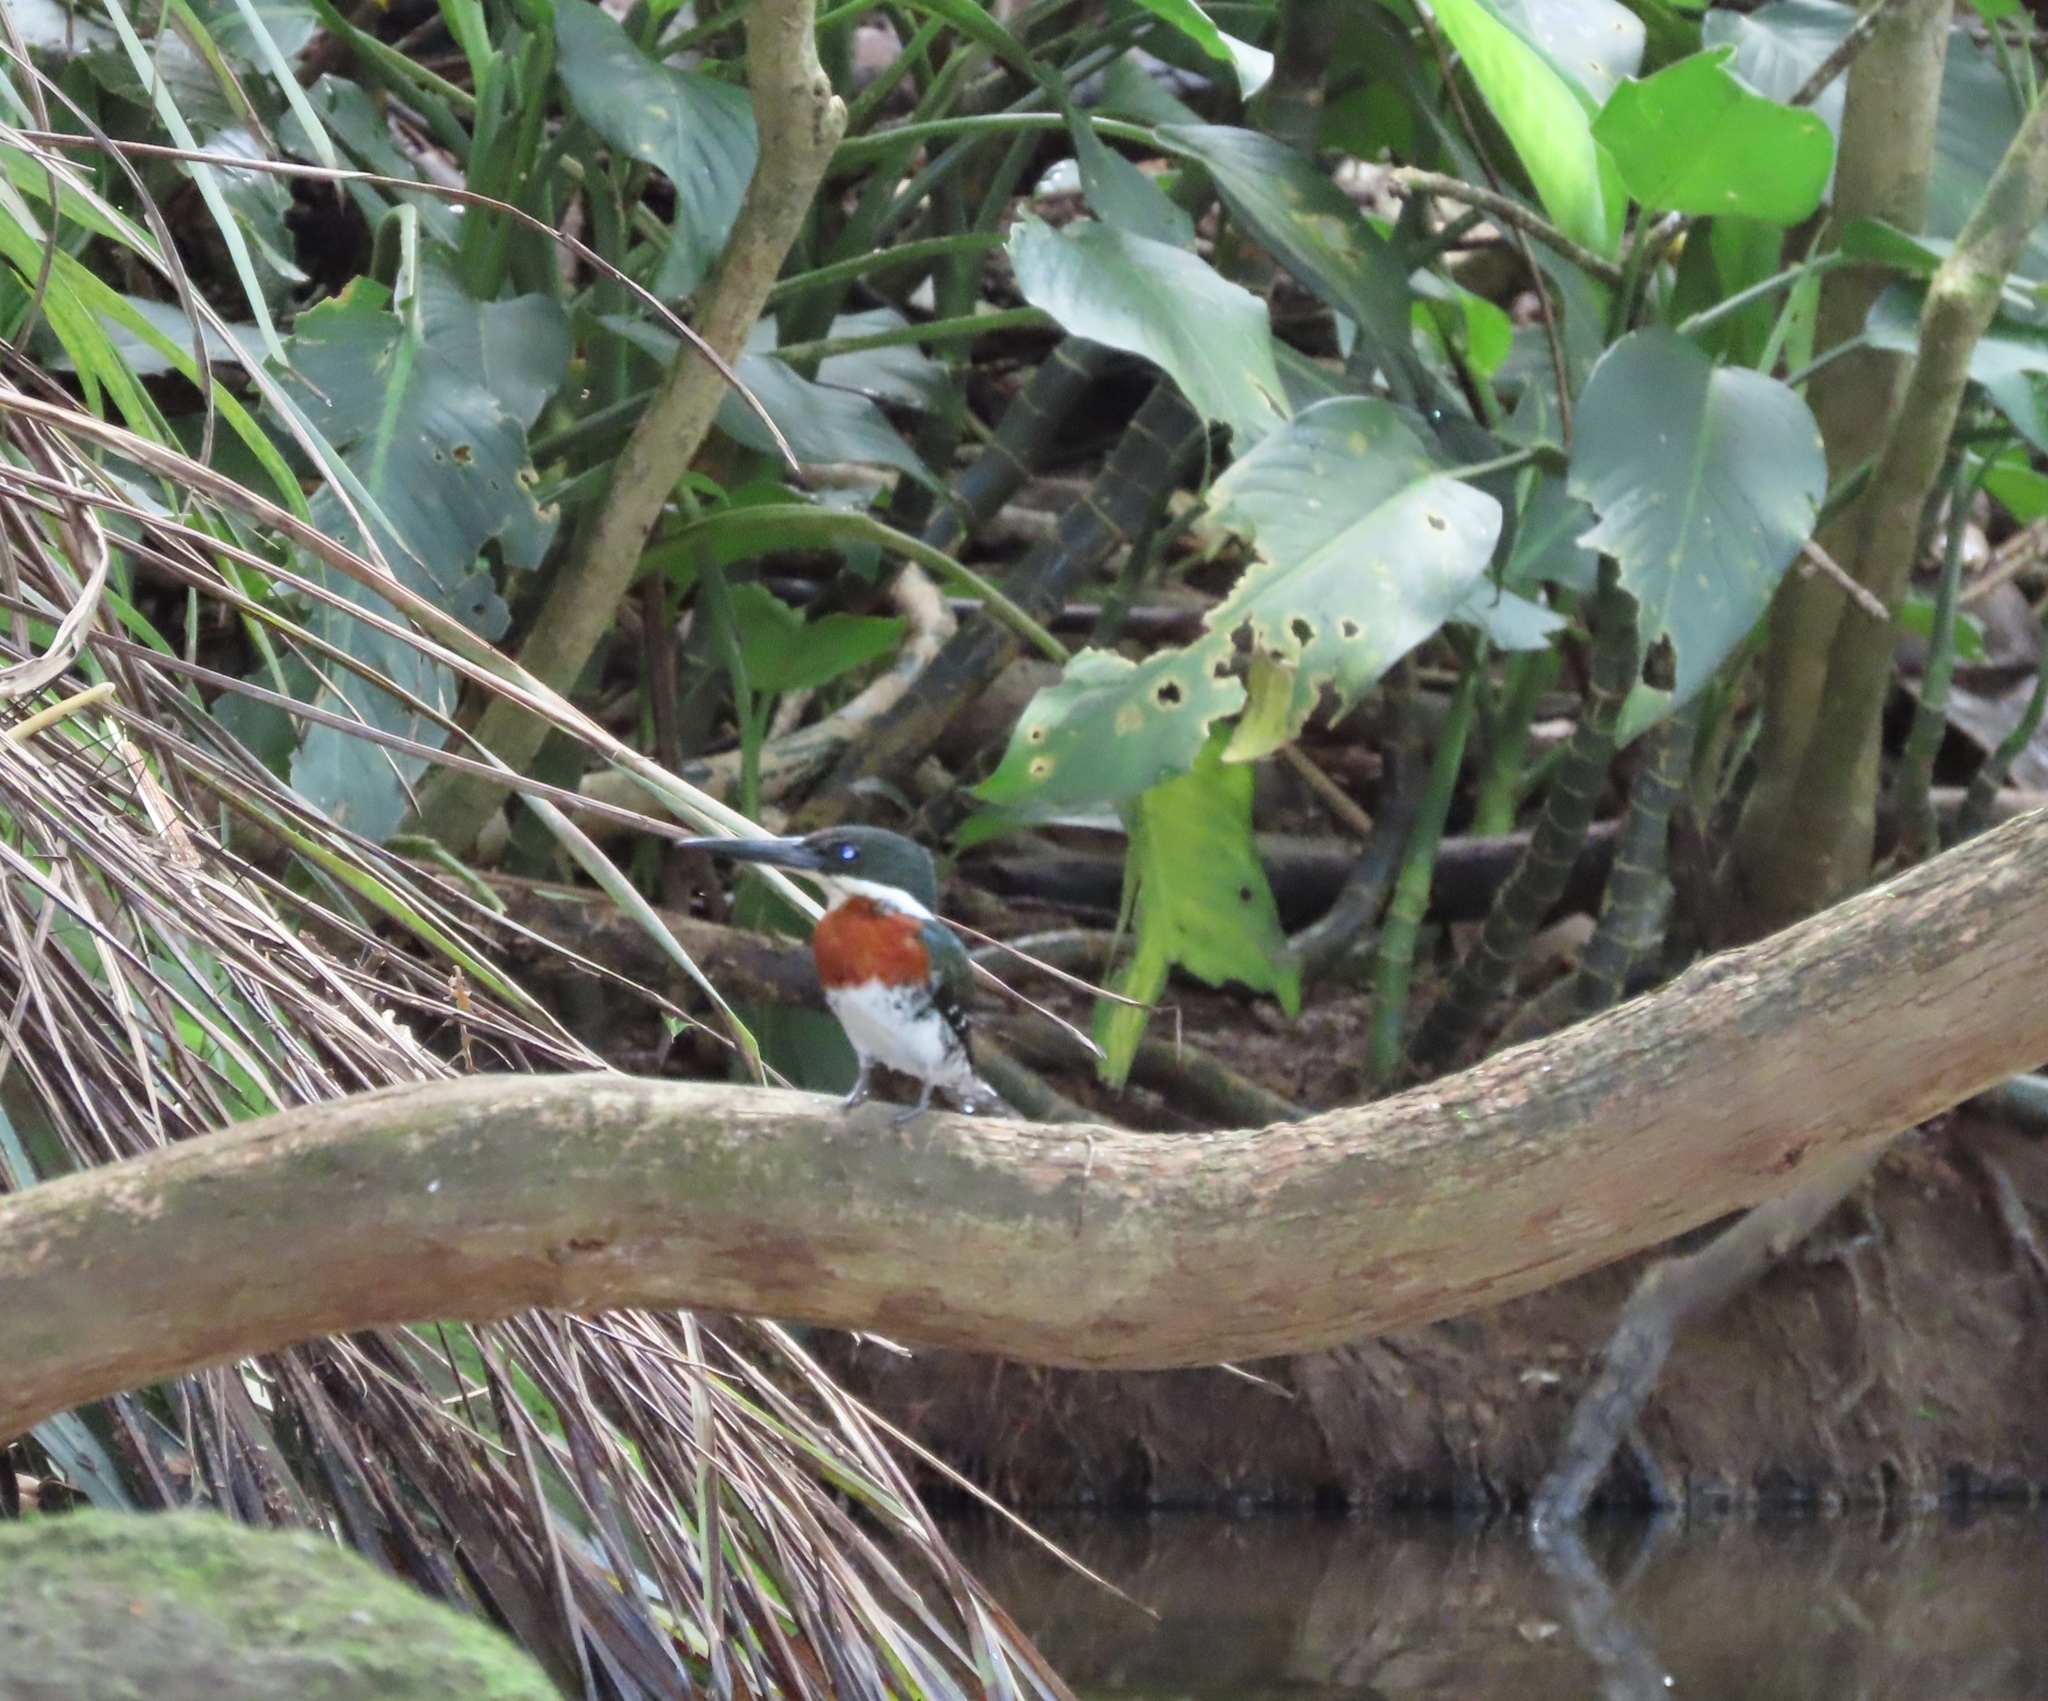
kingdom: Animalia
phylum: Chordata
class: Aves
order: Coraciiformes
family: Alcedinidae
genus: Chloroceryle
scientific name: Chloroceryle americana
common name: Green kingfisher
